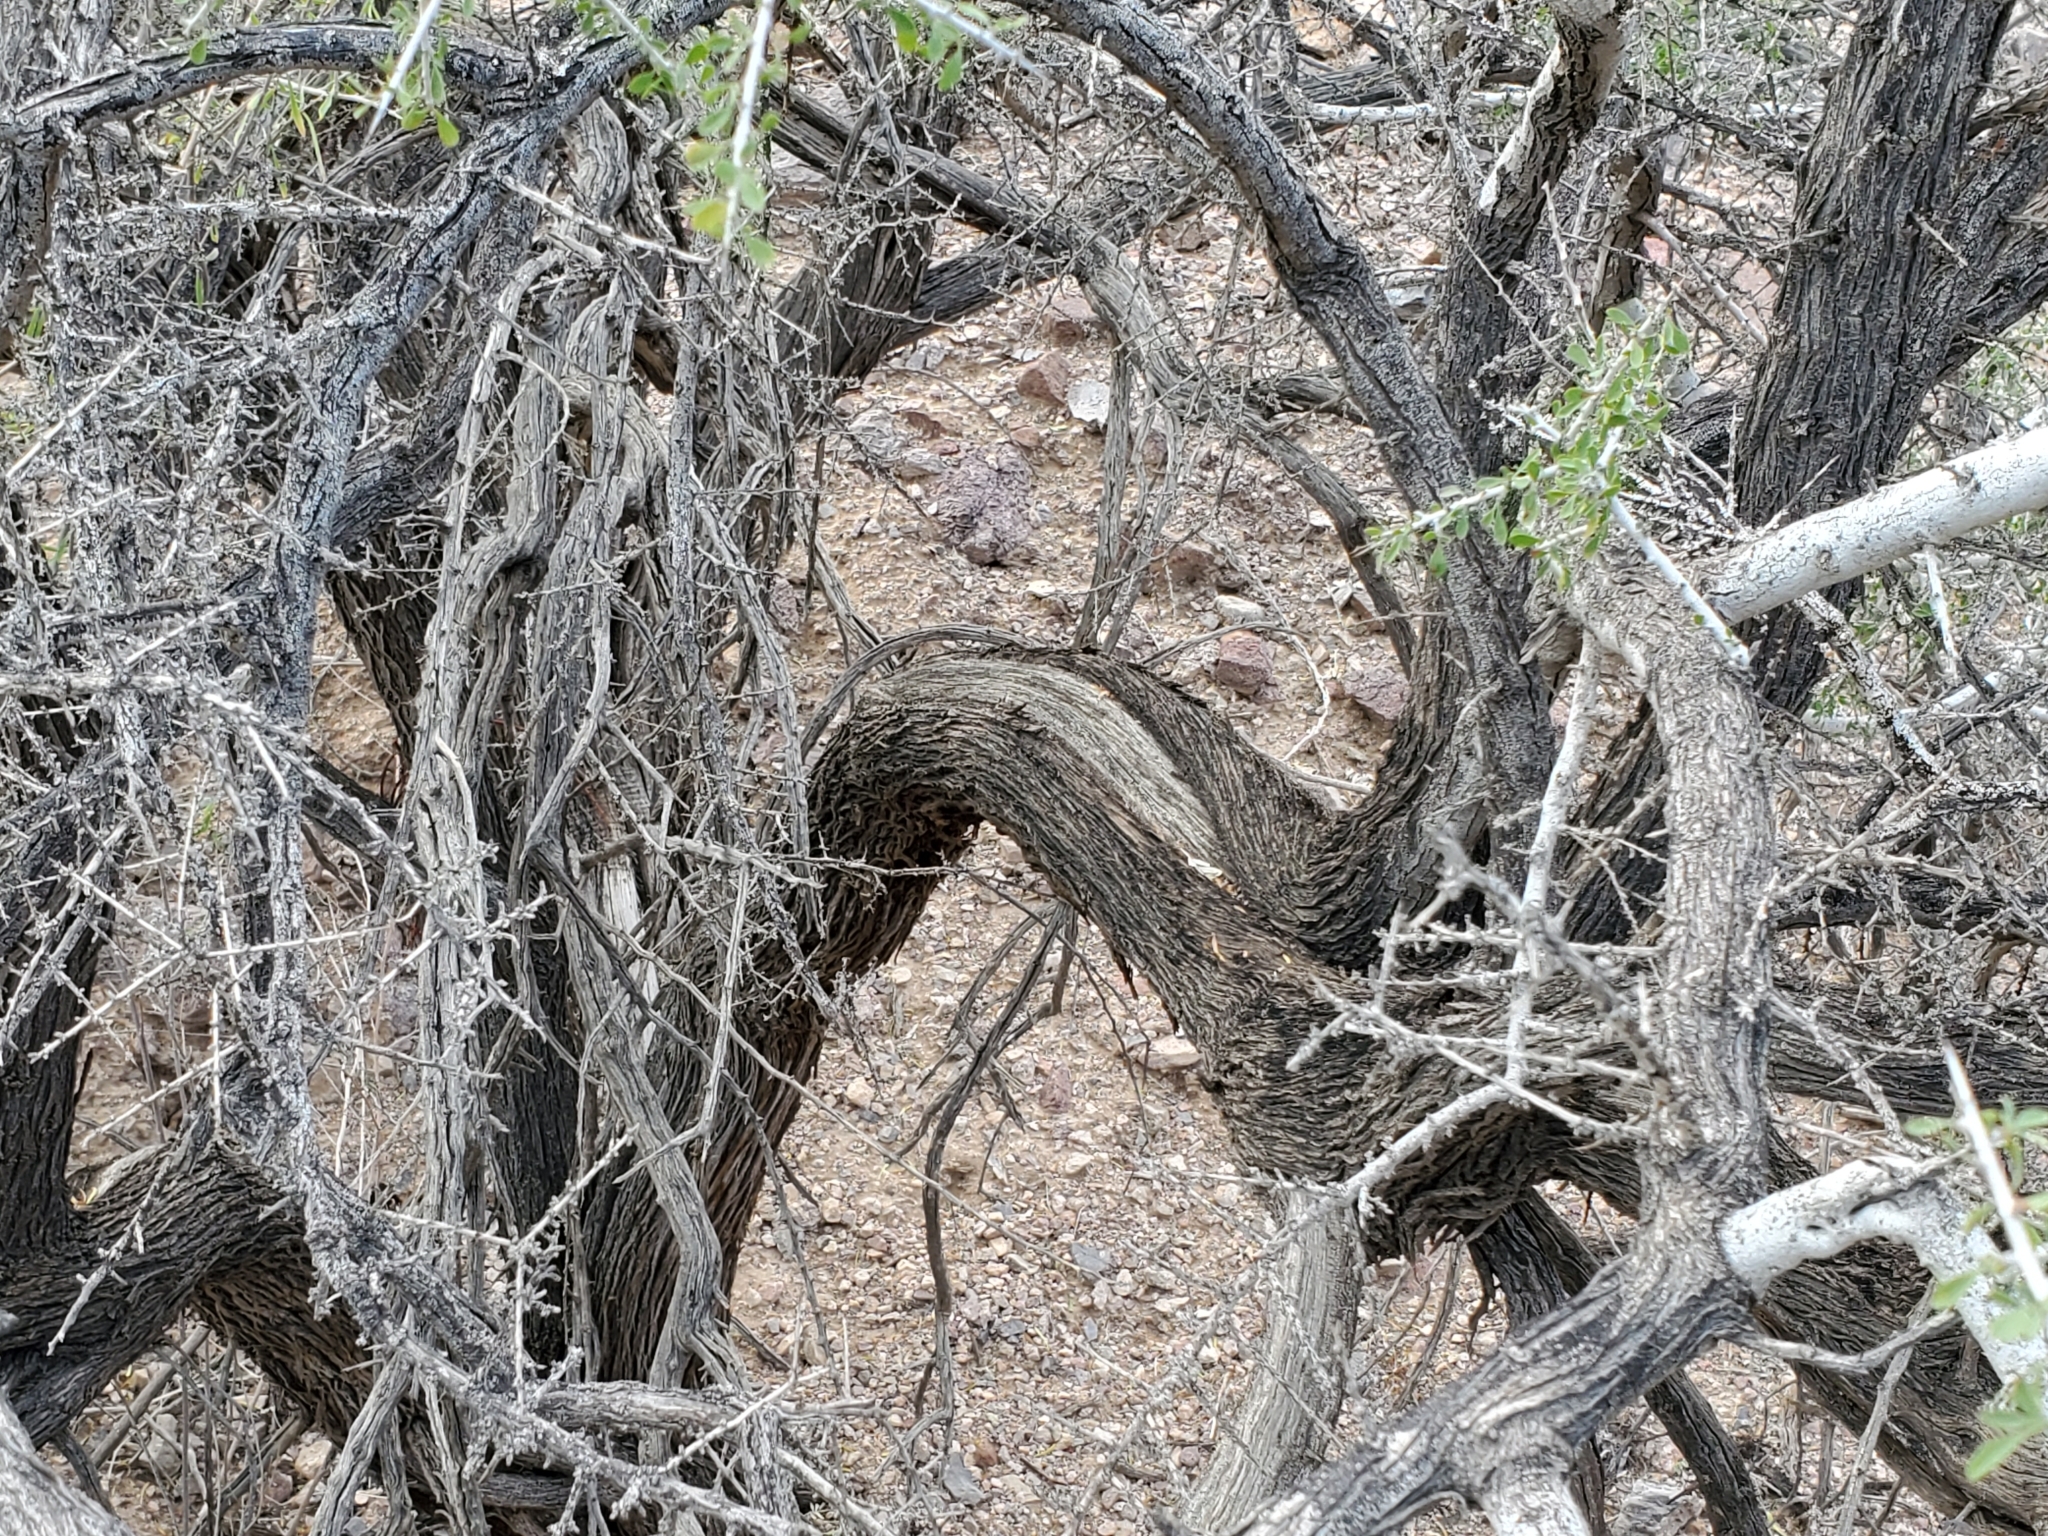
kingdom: Plantae
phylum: Tracheophyta
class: Magnoliopsida
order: Rosales
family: Rhamnaceae
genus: Condalia
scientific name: Condalia globosa
